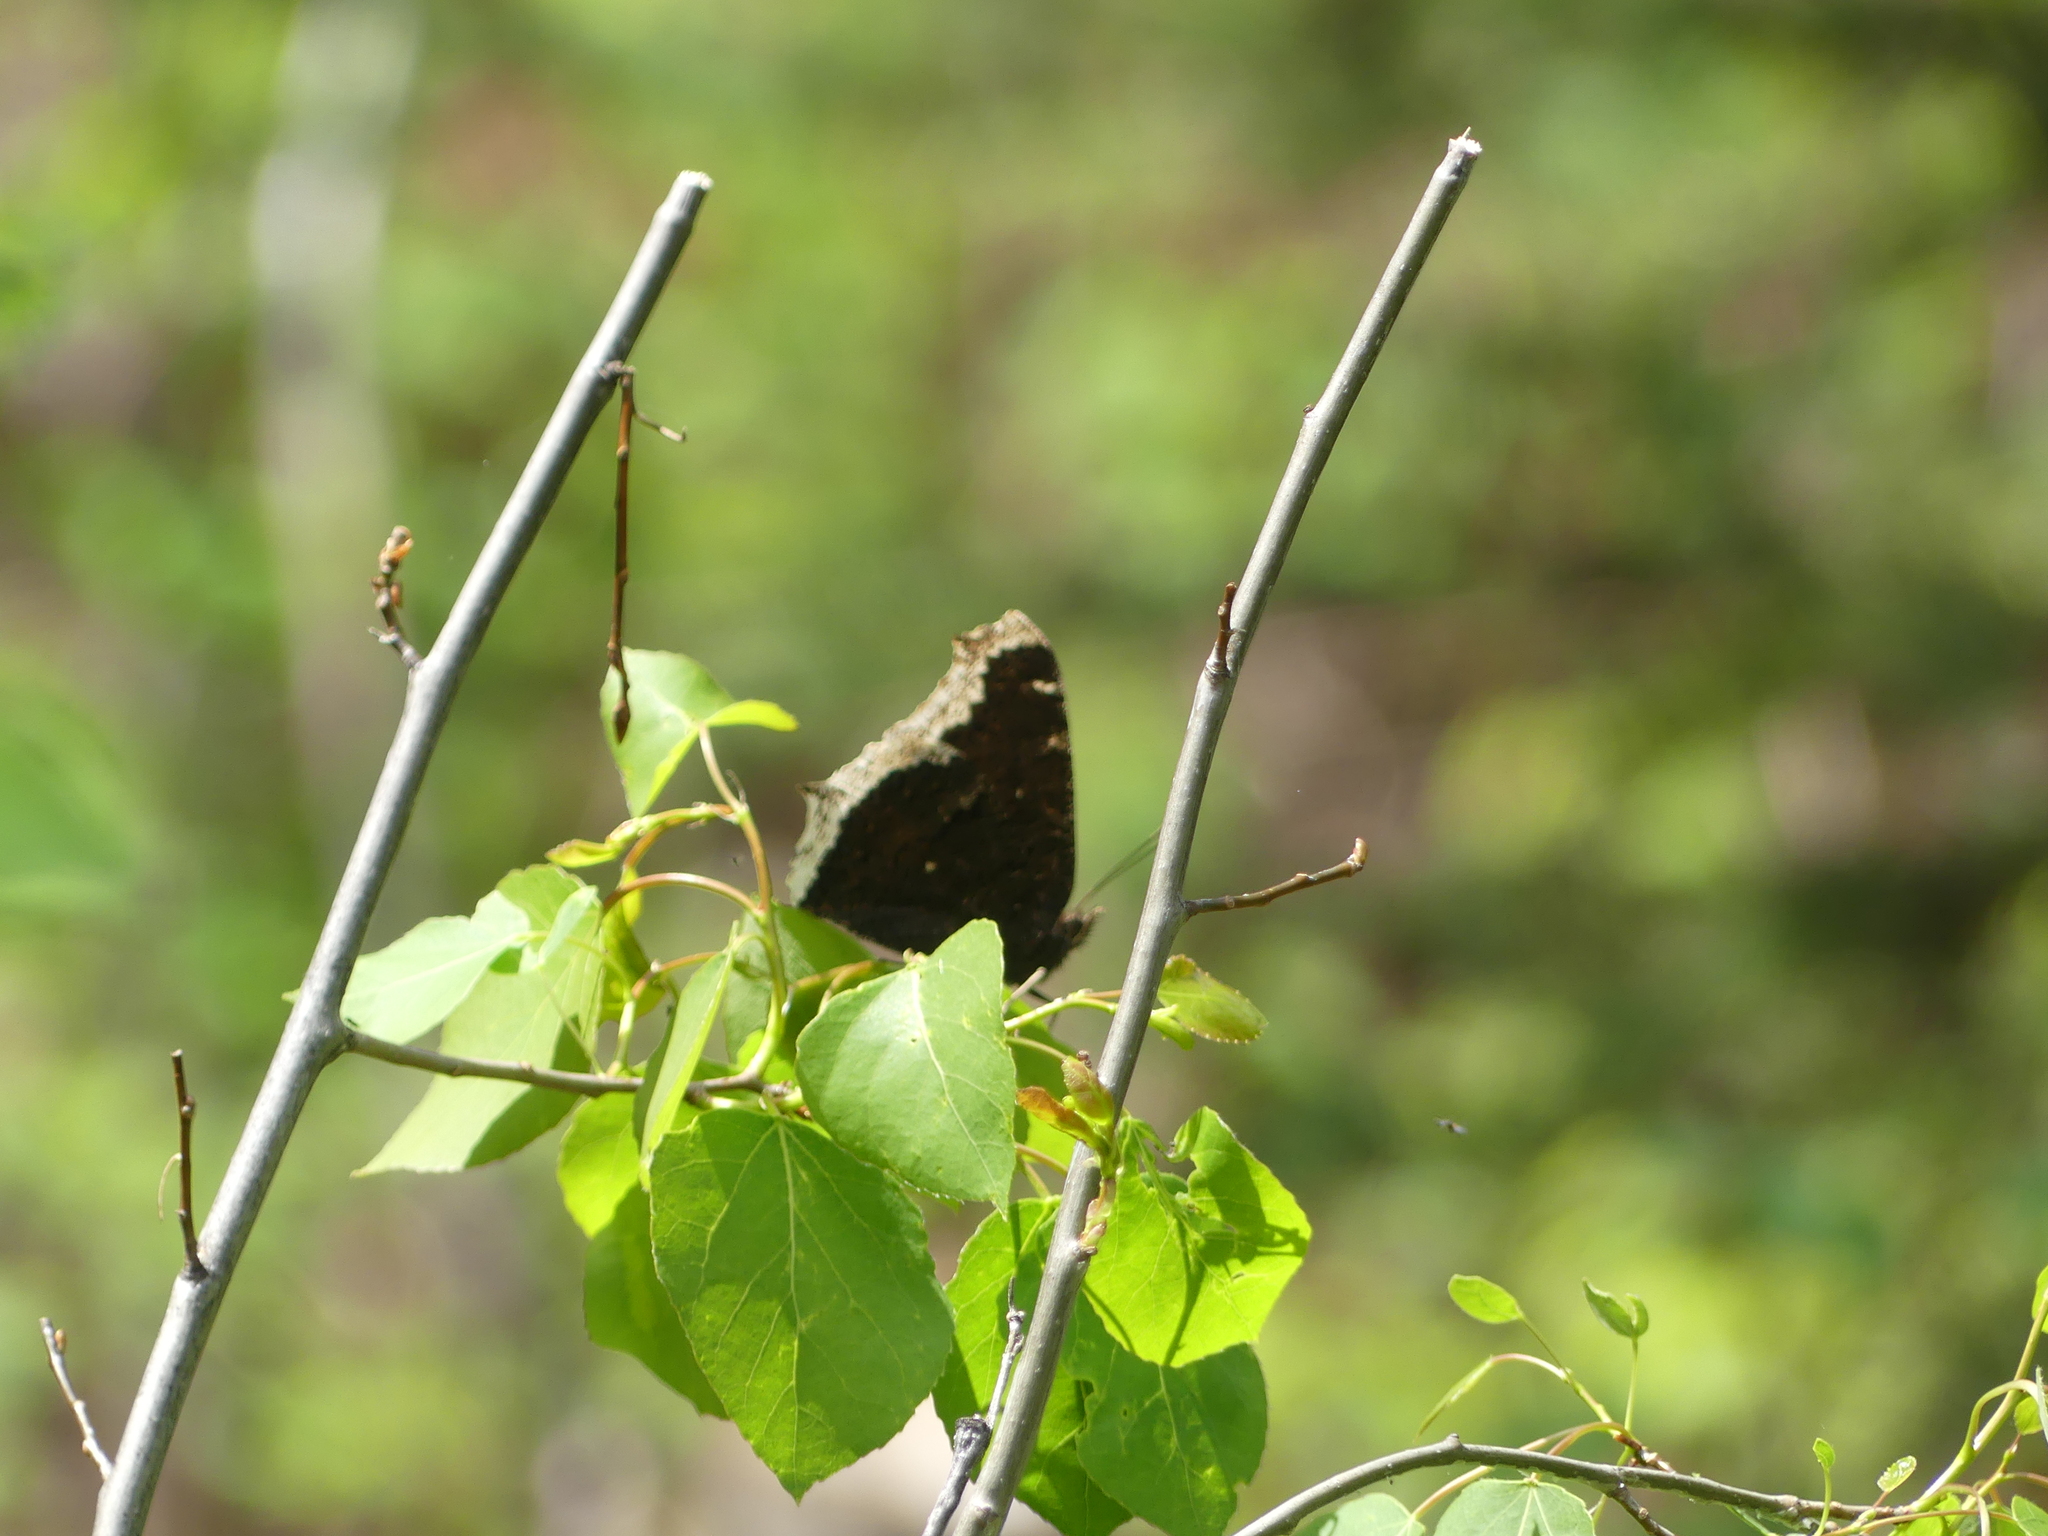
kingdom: Animalia
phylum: Arthropoda
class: Insecta
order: Lepidoptera
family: Nymphalidae
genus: Nymphalis
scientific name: Nymphalis antiopa
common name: Camberwell beauty
